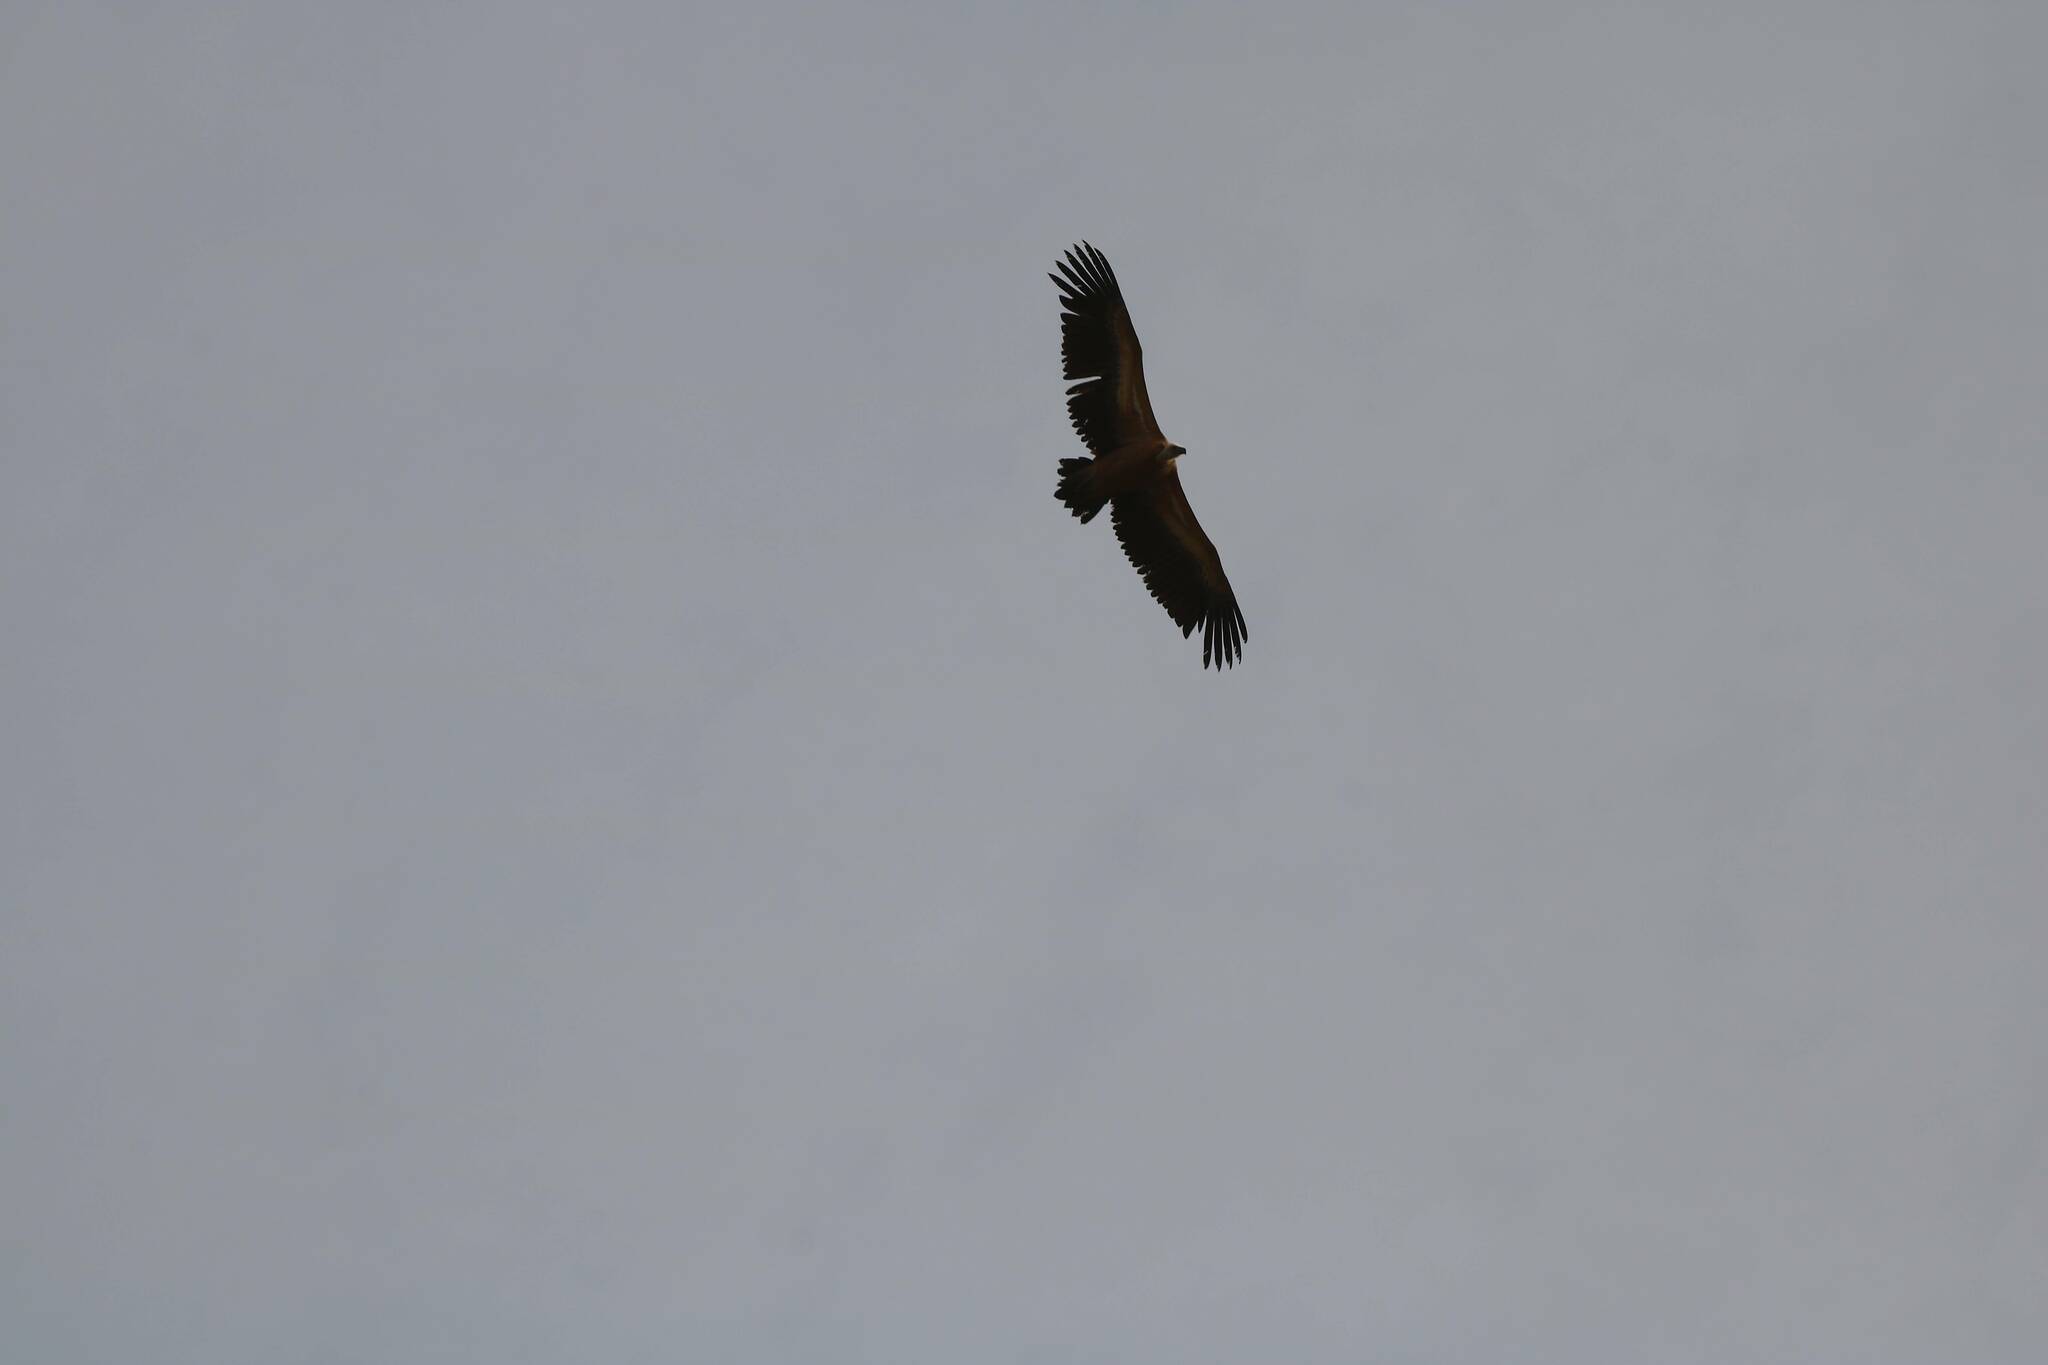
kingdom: Animalia
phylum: Chordata
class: Aves
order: Accipitriformes
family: Accipitridae
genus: Gyps
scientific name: Gyps fulvus
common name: Griffon vulture
